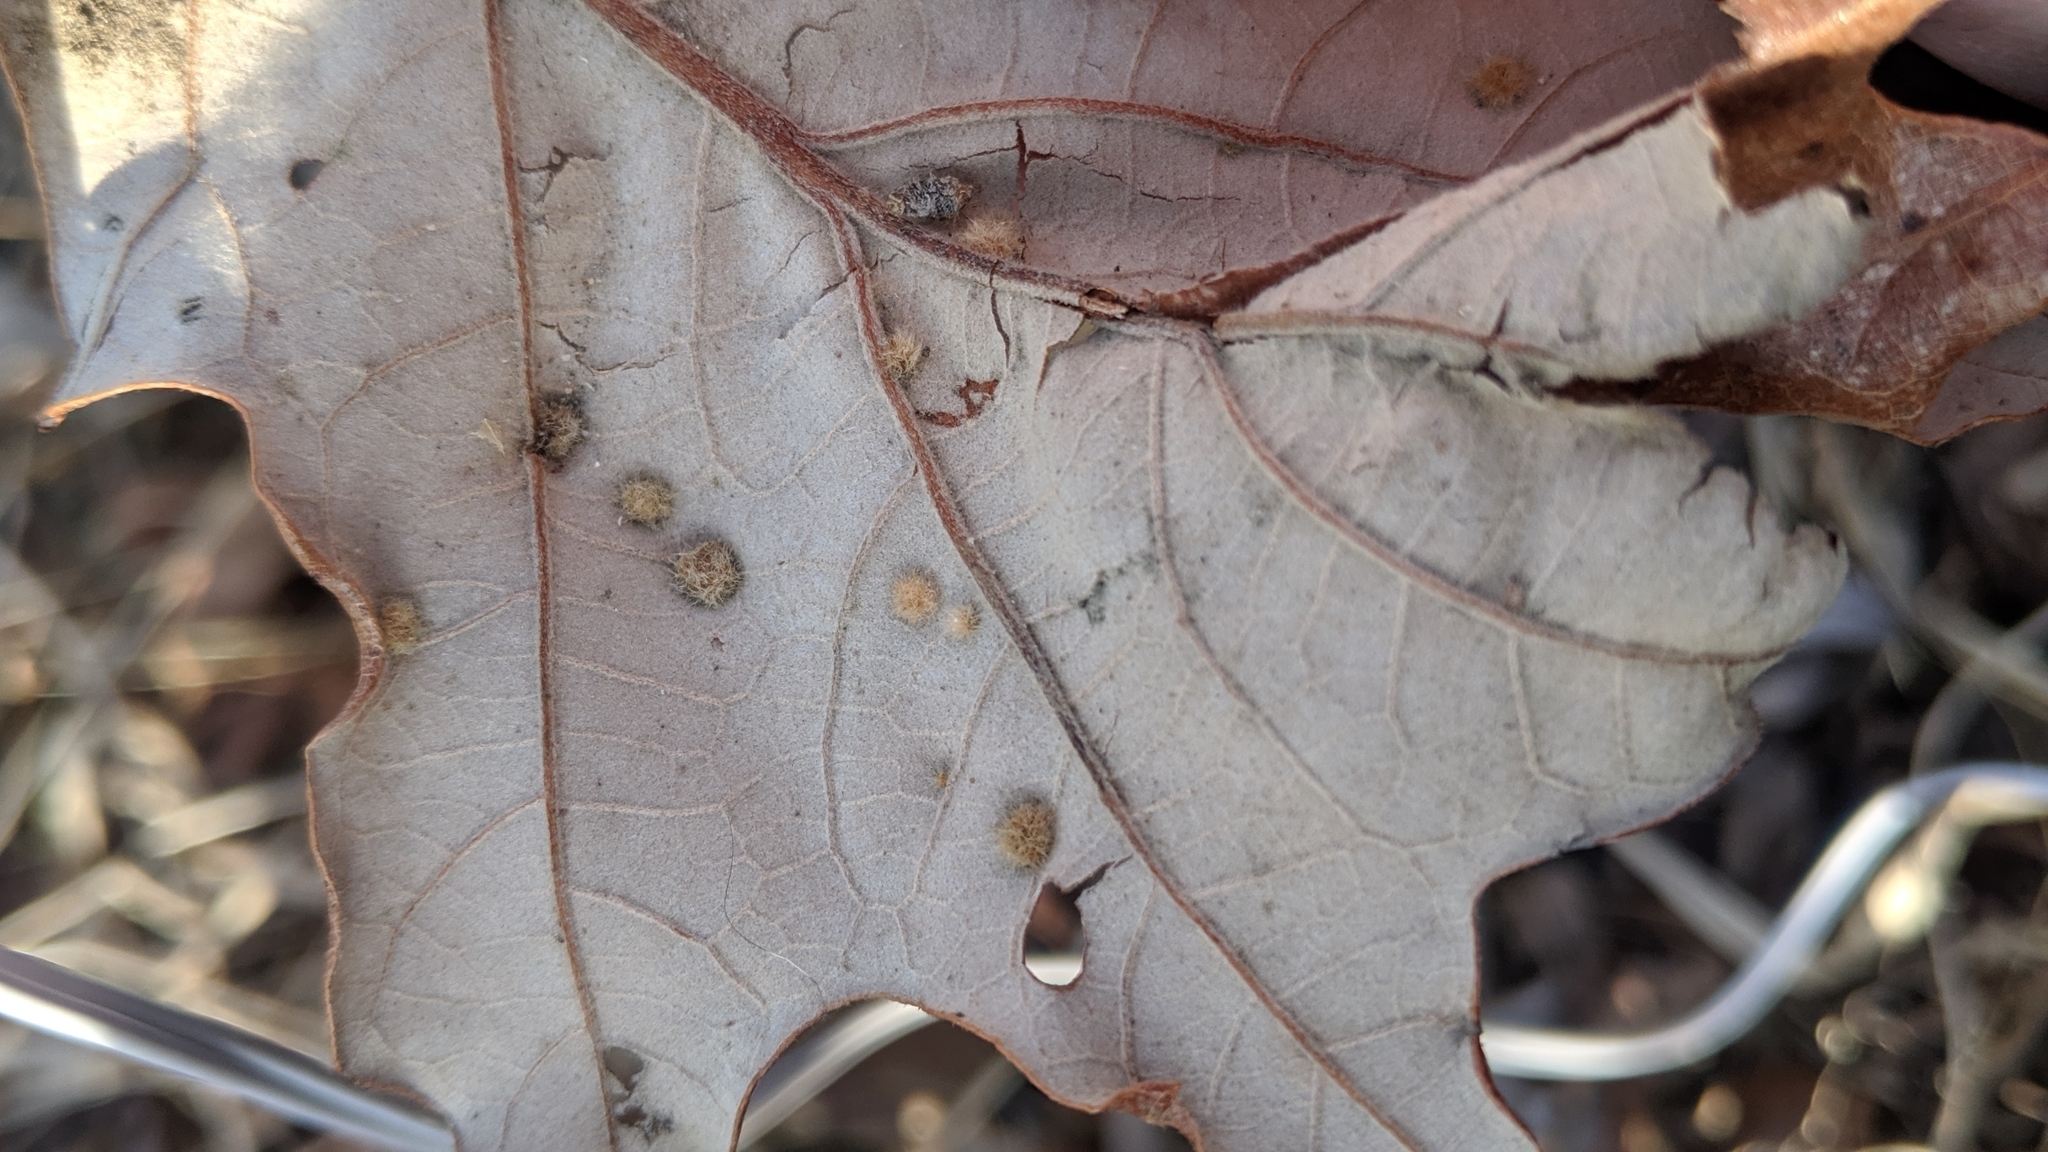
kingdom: Animalia
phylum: Arthropoda
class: Insecta
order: Hymenoptera
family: Cynipidae
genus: Neuroterus
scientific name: Neuroterus quercusverrucarum
